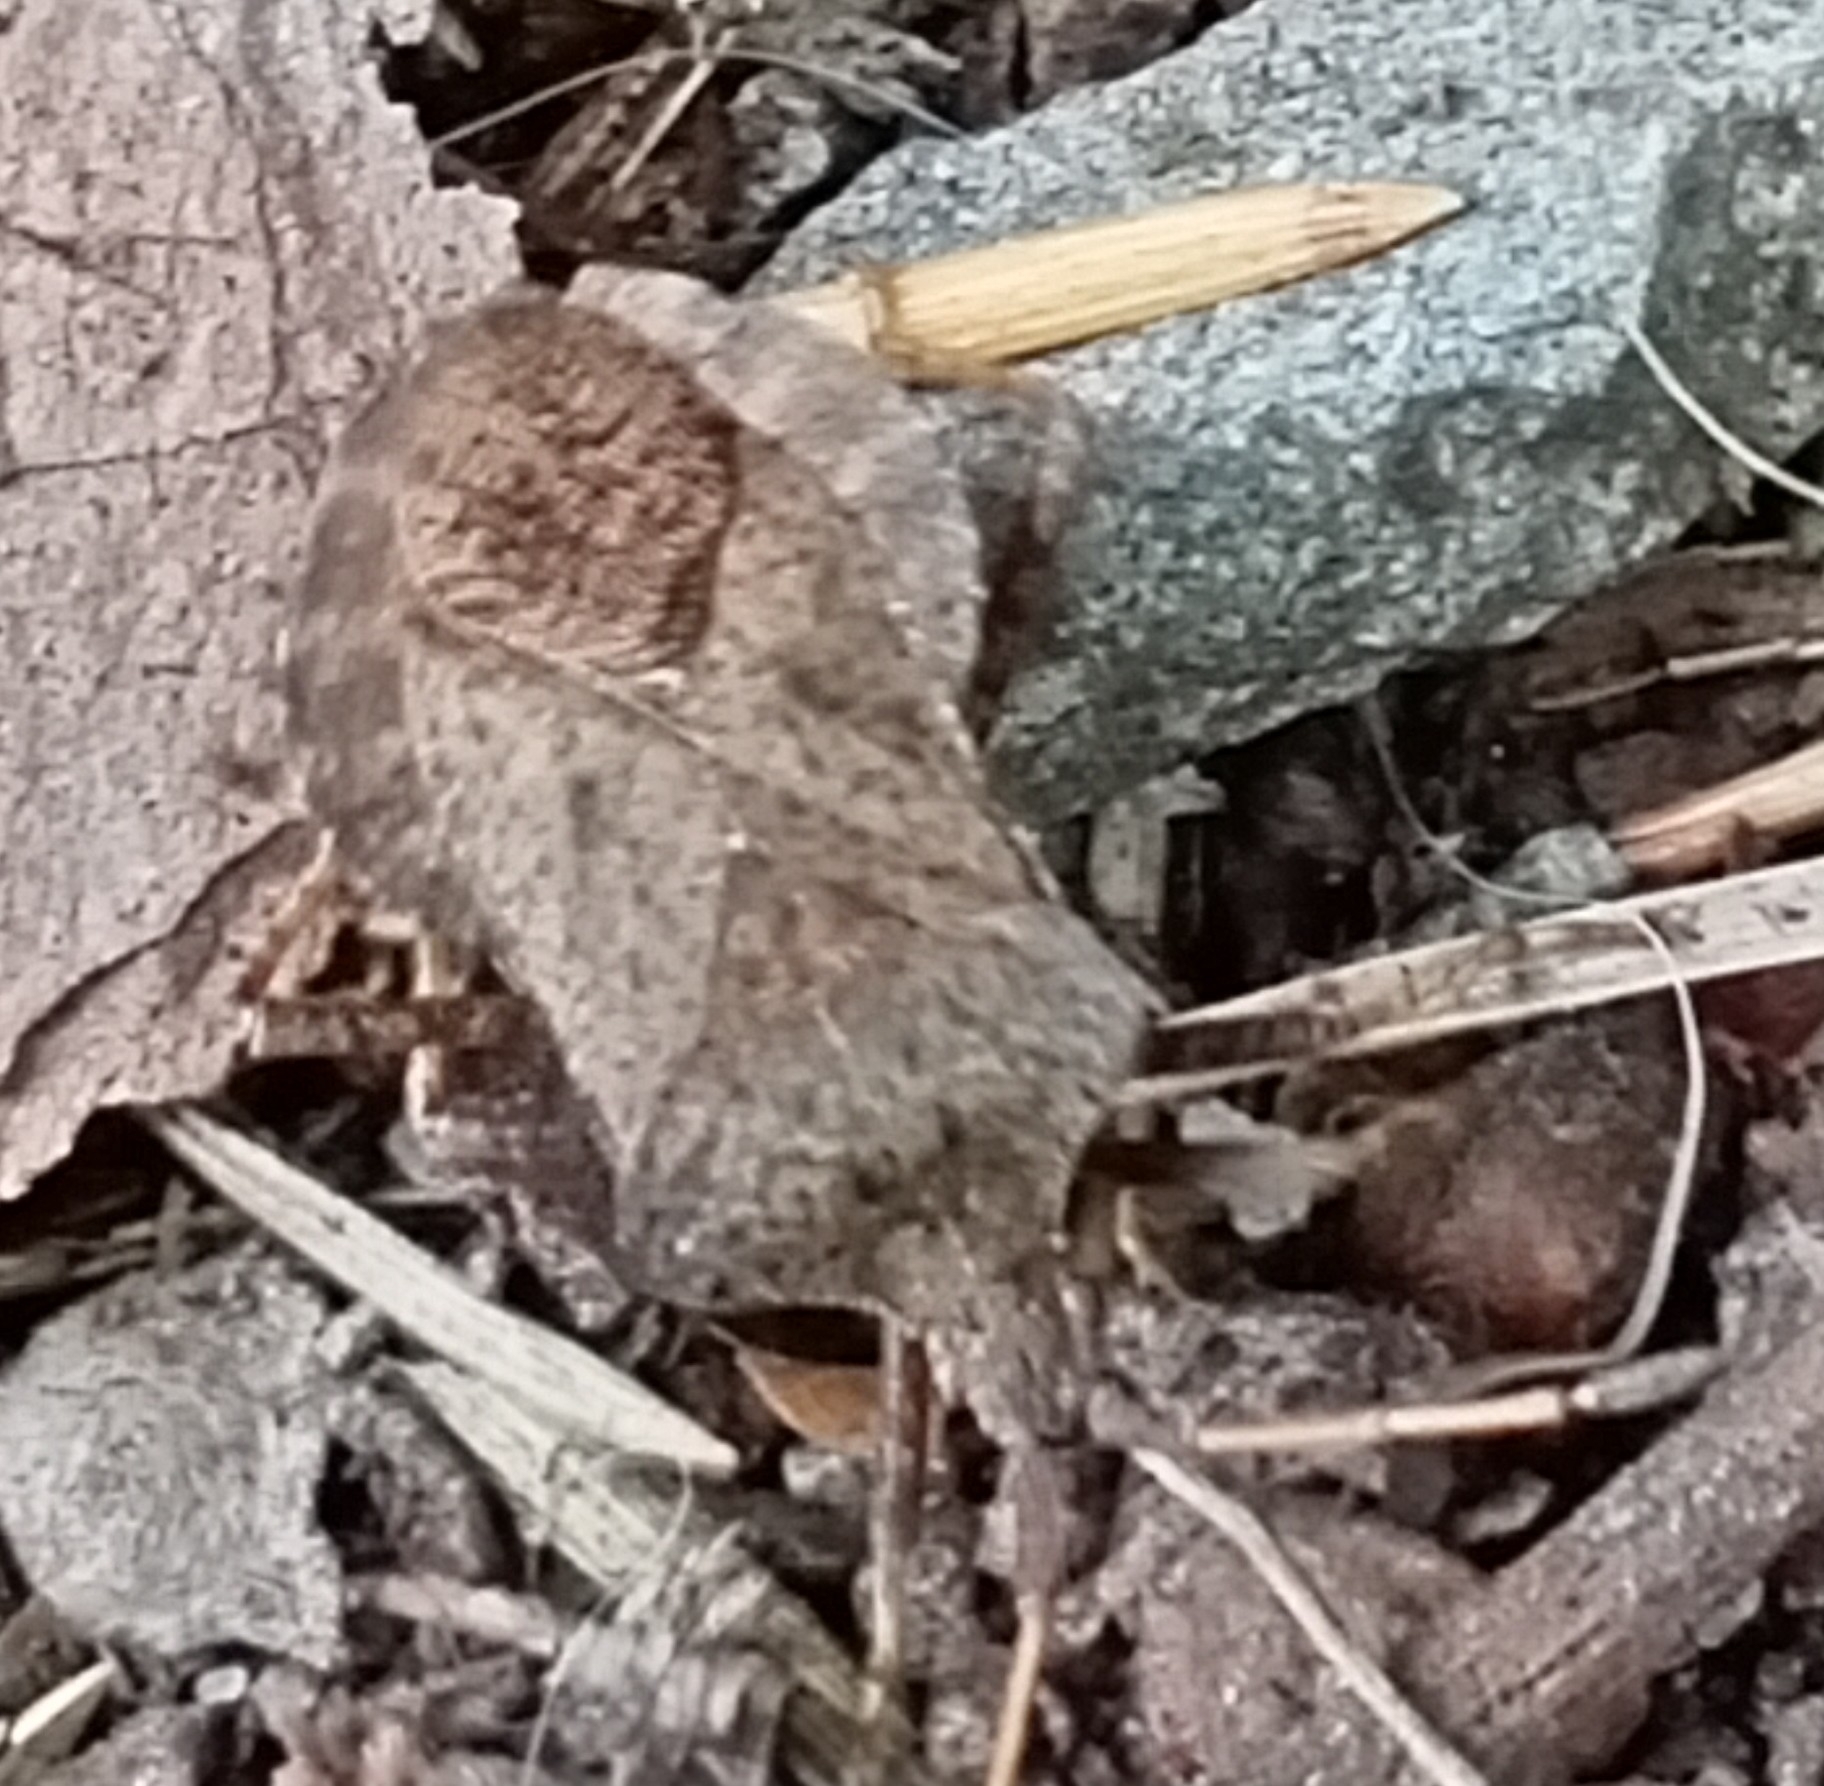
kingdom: Animalia
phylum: Arthropoda
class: Insecta
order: Hemiptera
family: Coreidae
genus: Coreus
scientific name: Coreus marginatus
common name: Dock bug
